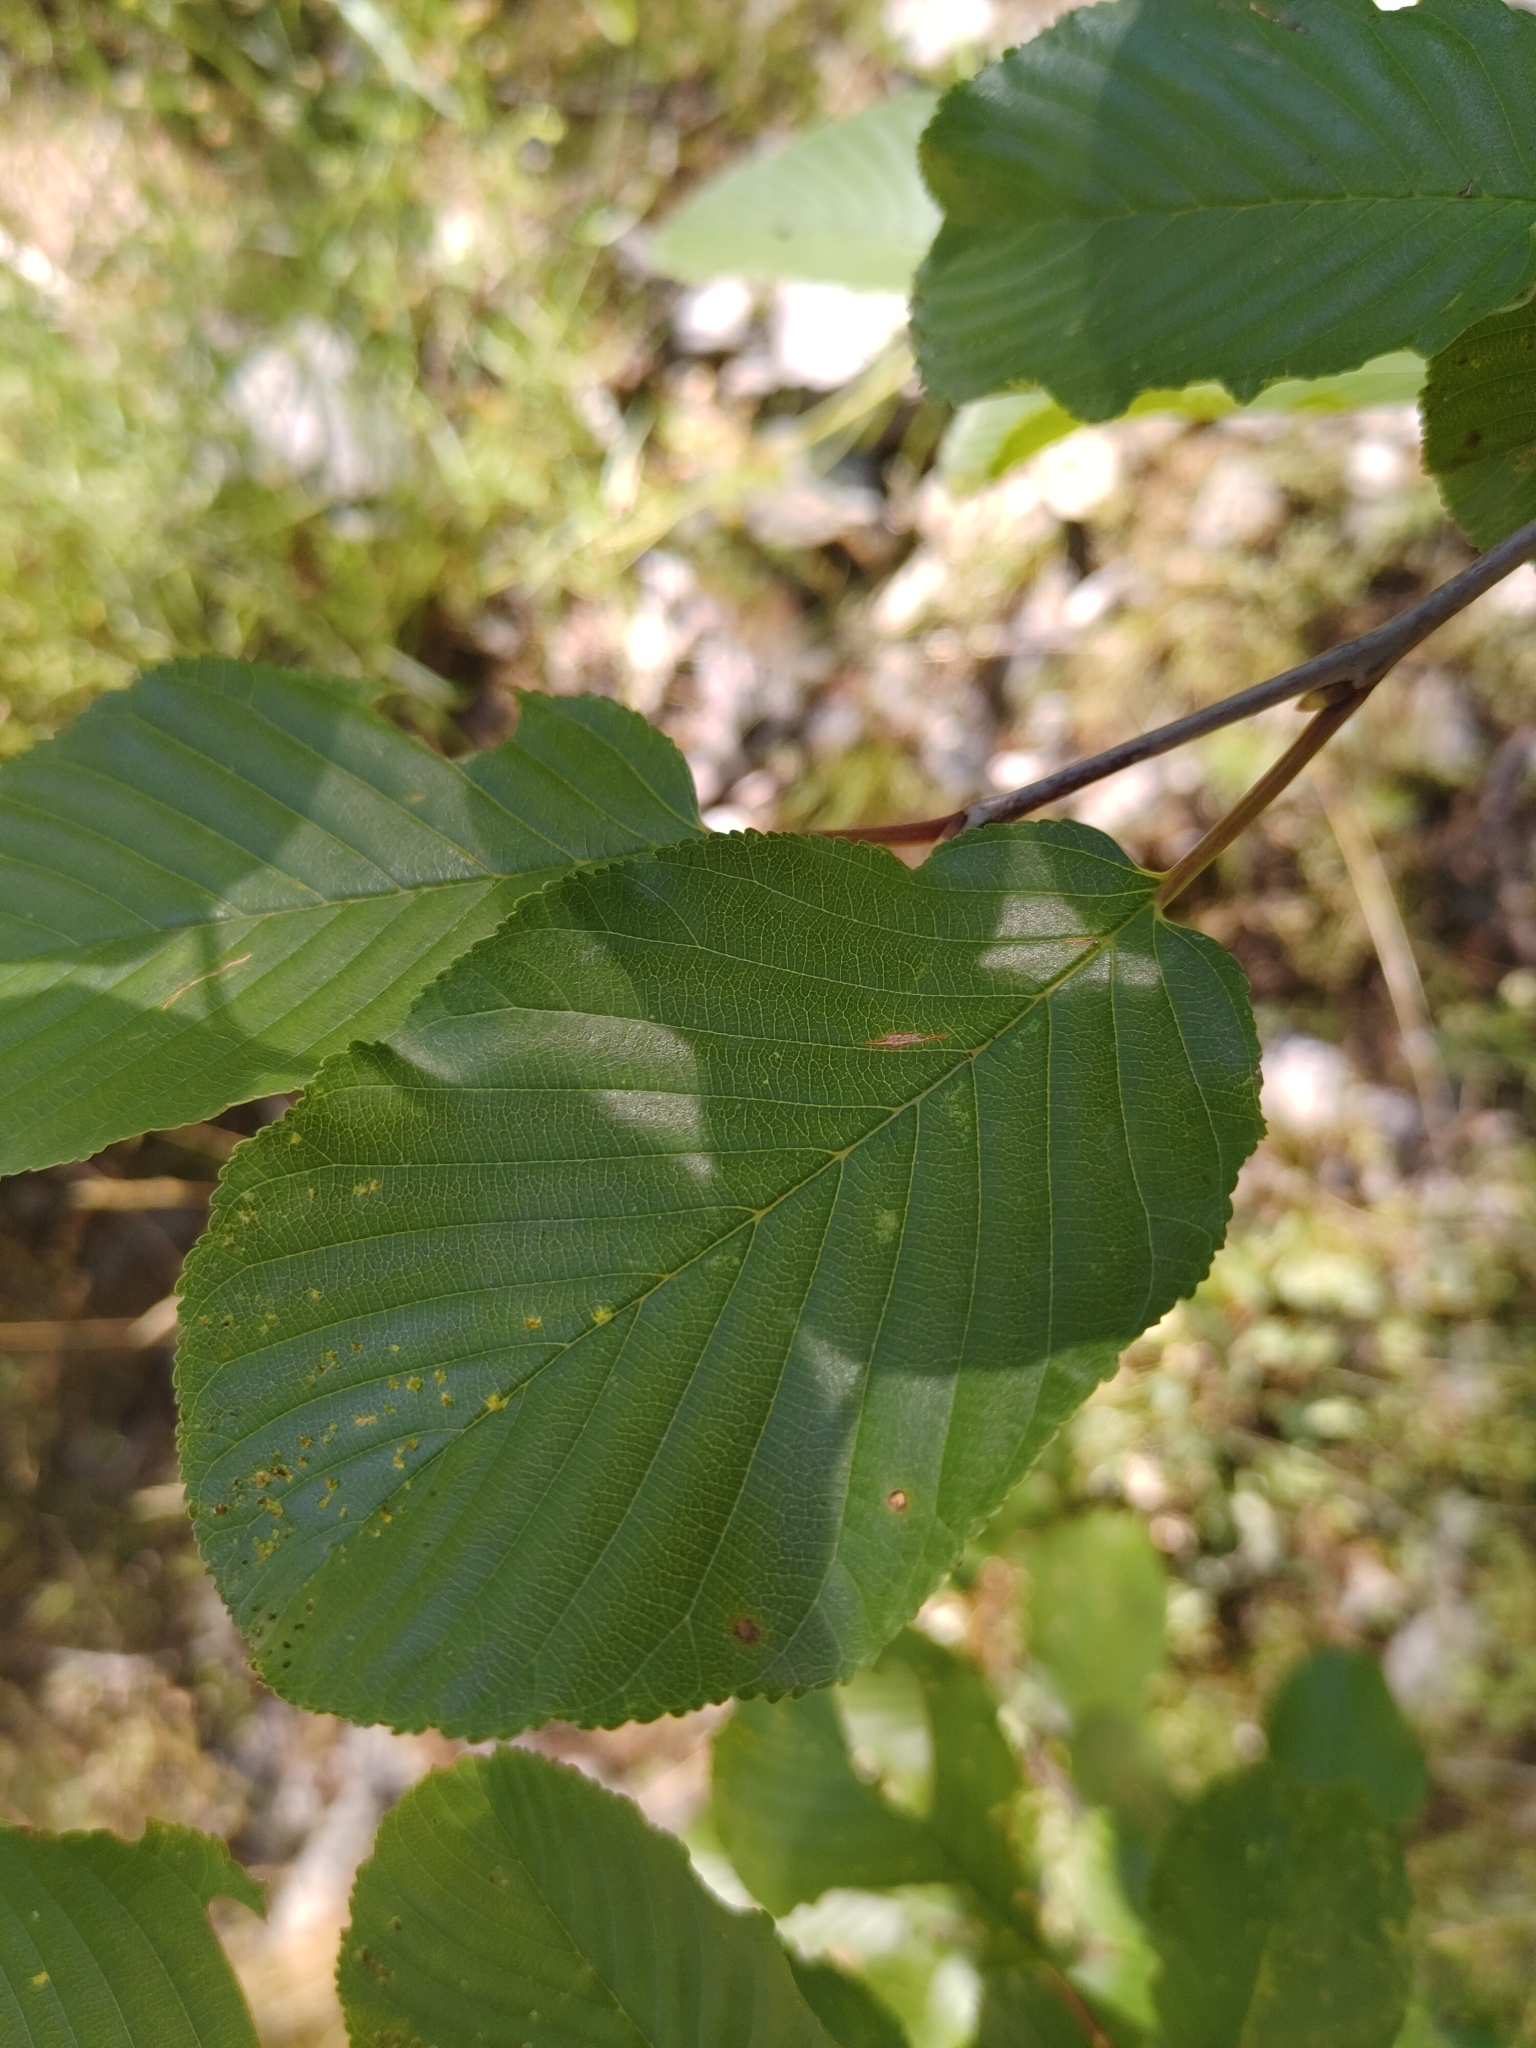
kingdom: Plantae
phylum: Tracheophyta
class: Magnoliopsida
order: Rosales
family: Rhamnaceae
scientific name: Rhamnaceae
